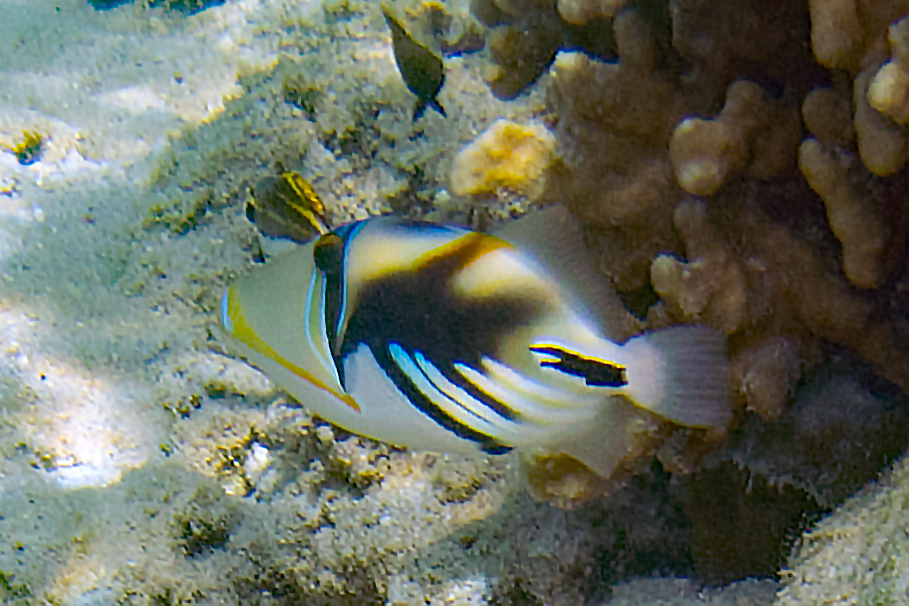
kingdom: Animalia
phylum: Chordata
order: Tetraodontiformes
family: Balistidae
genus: Rhinecanthus
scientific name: Rhinecanthus aculeatus
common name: White-banded triggerfish
